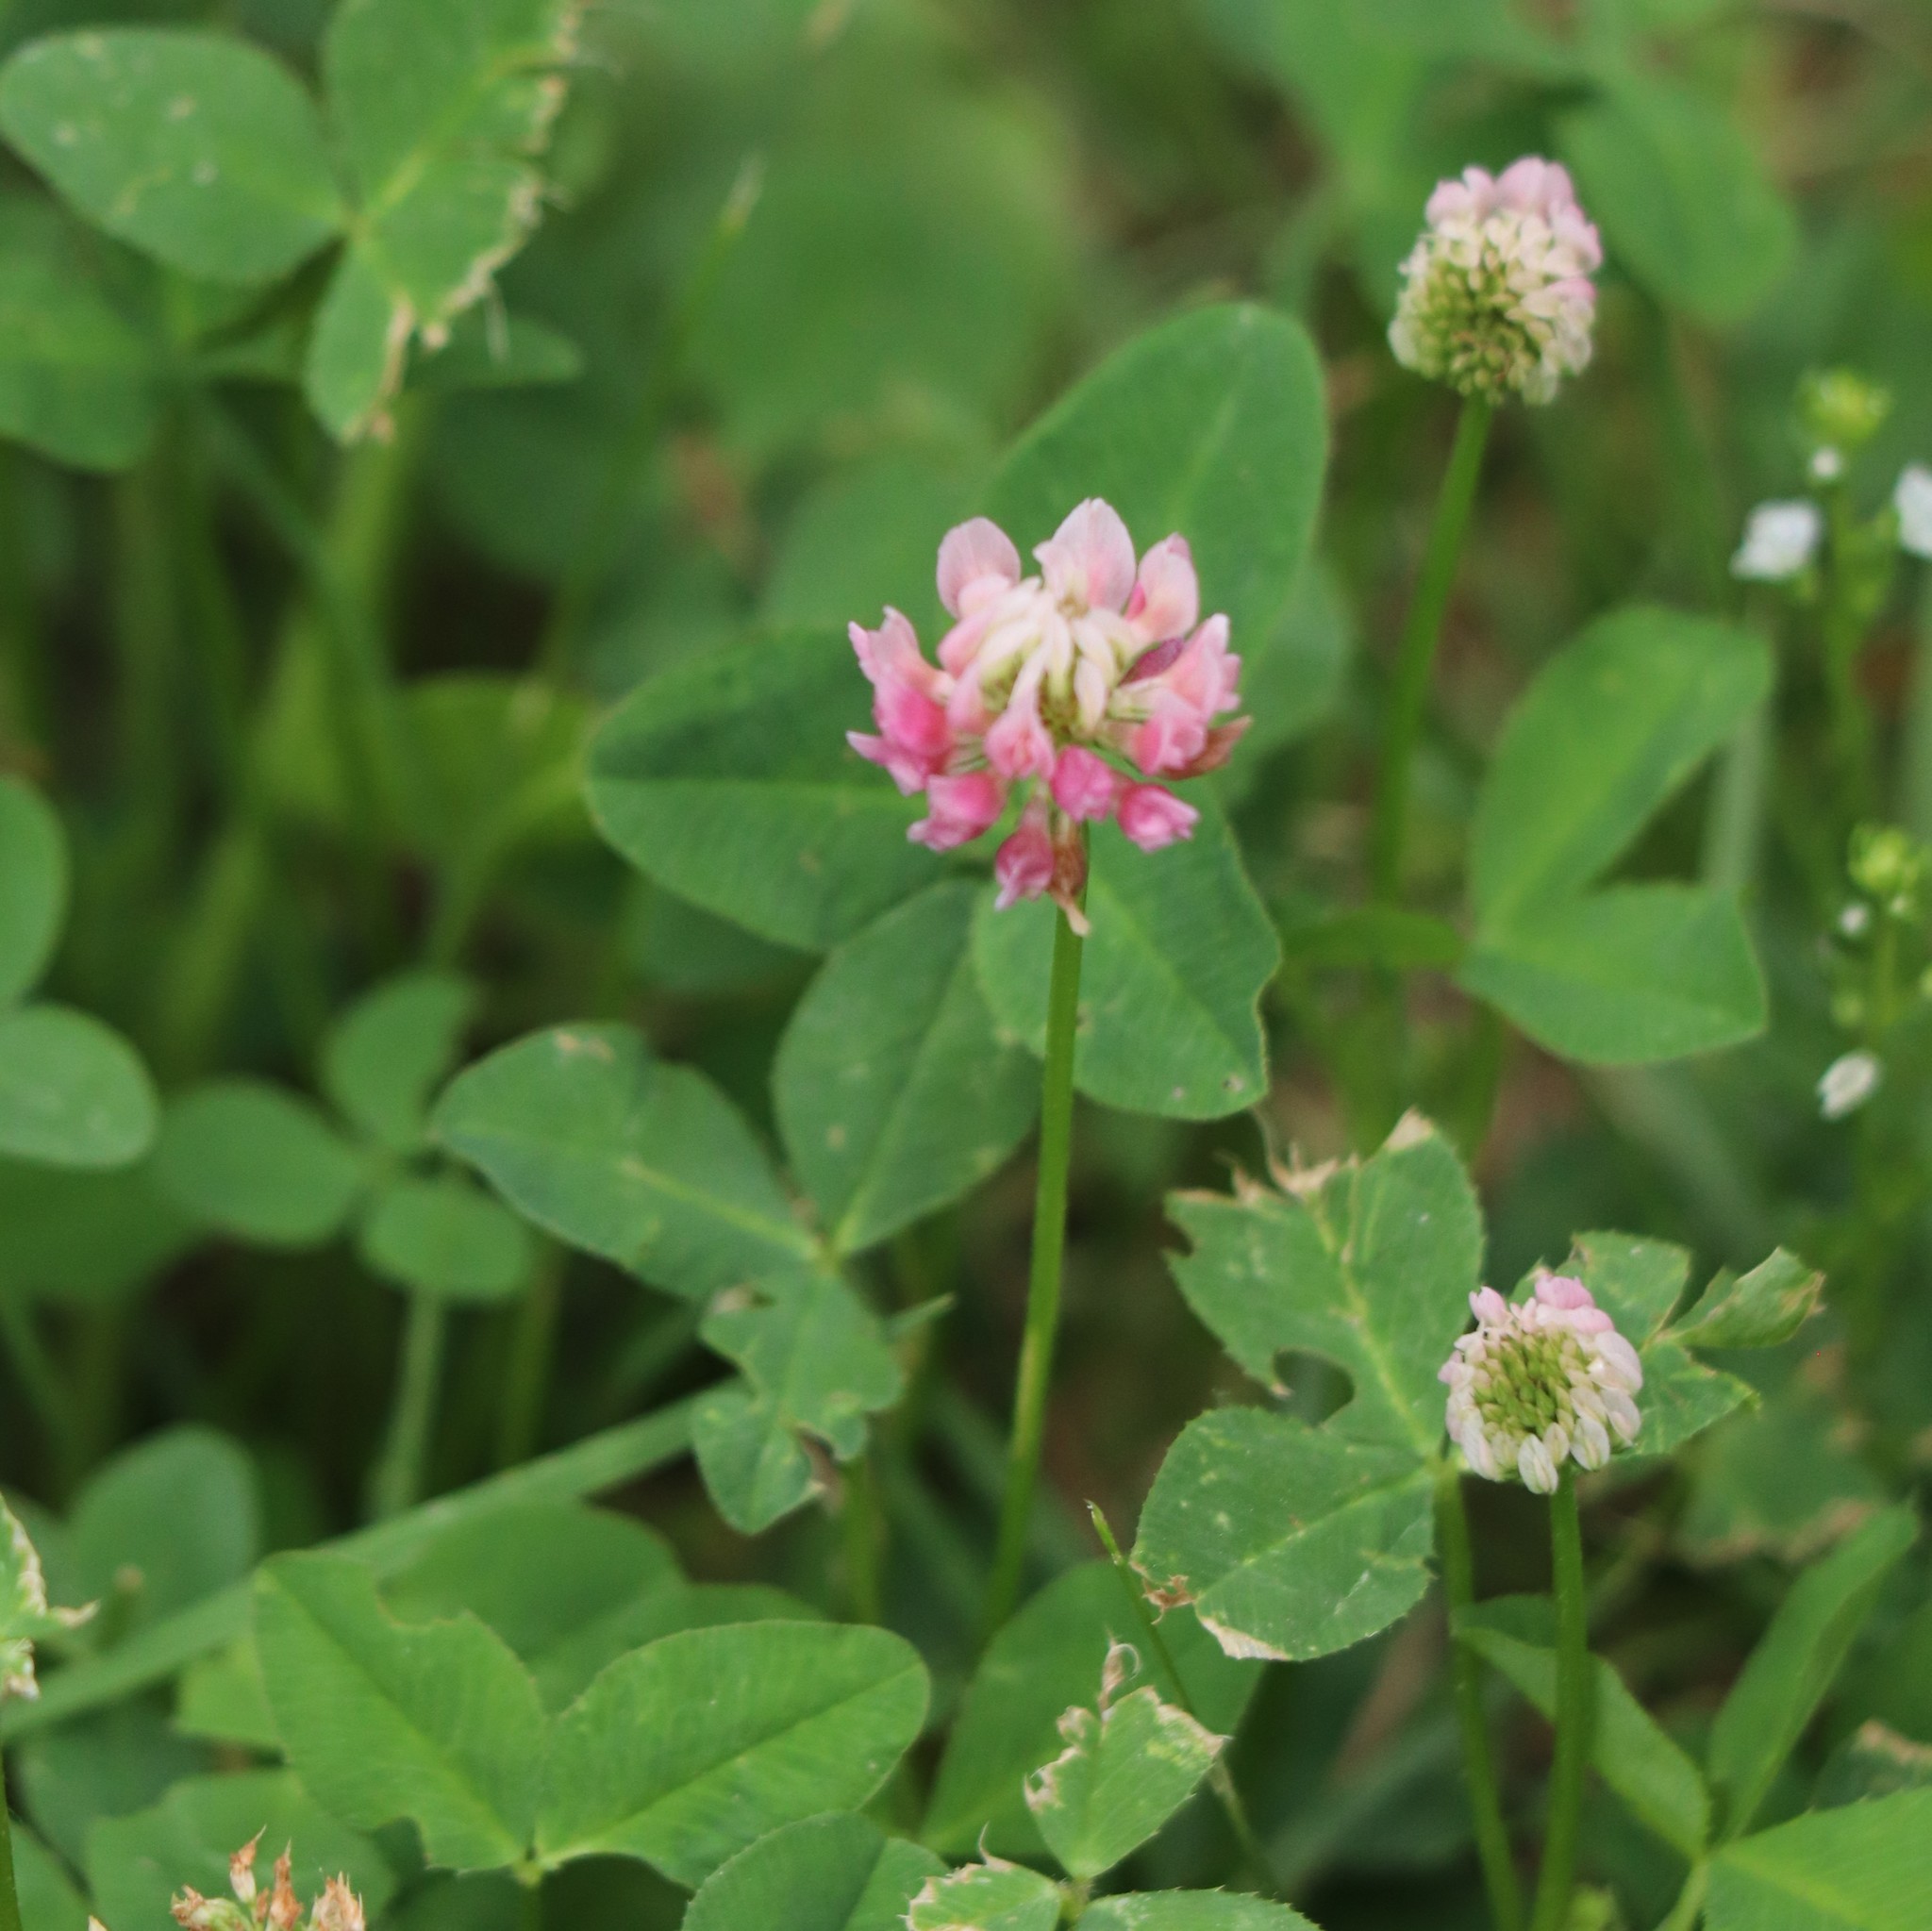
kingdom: Plantae
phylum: Tracheophyta
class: Magnoliopsida
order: Fabales
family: Fabaceae
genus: Trifolium
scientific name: Trifolium hybridum
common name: Alsike clover
